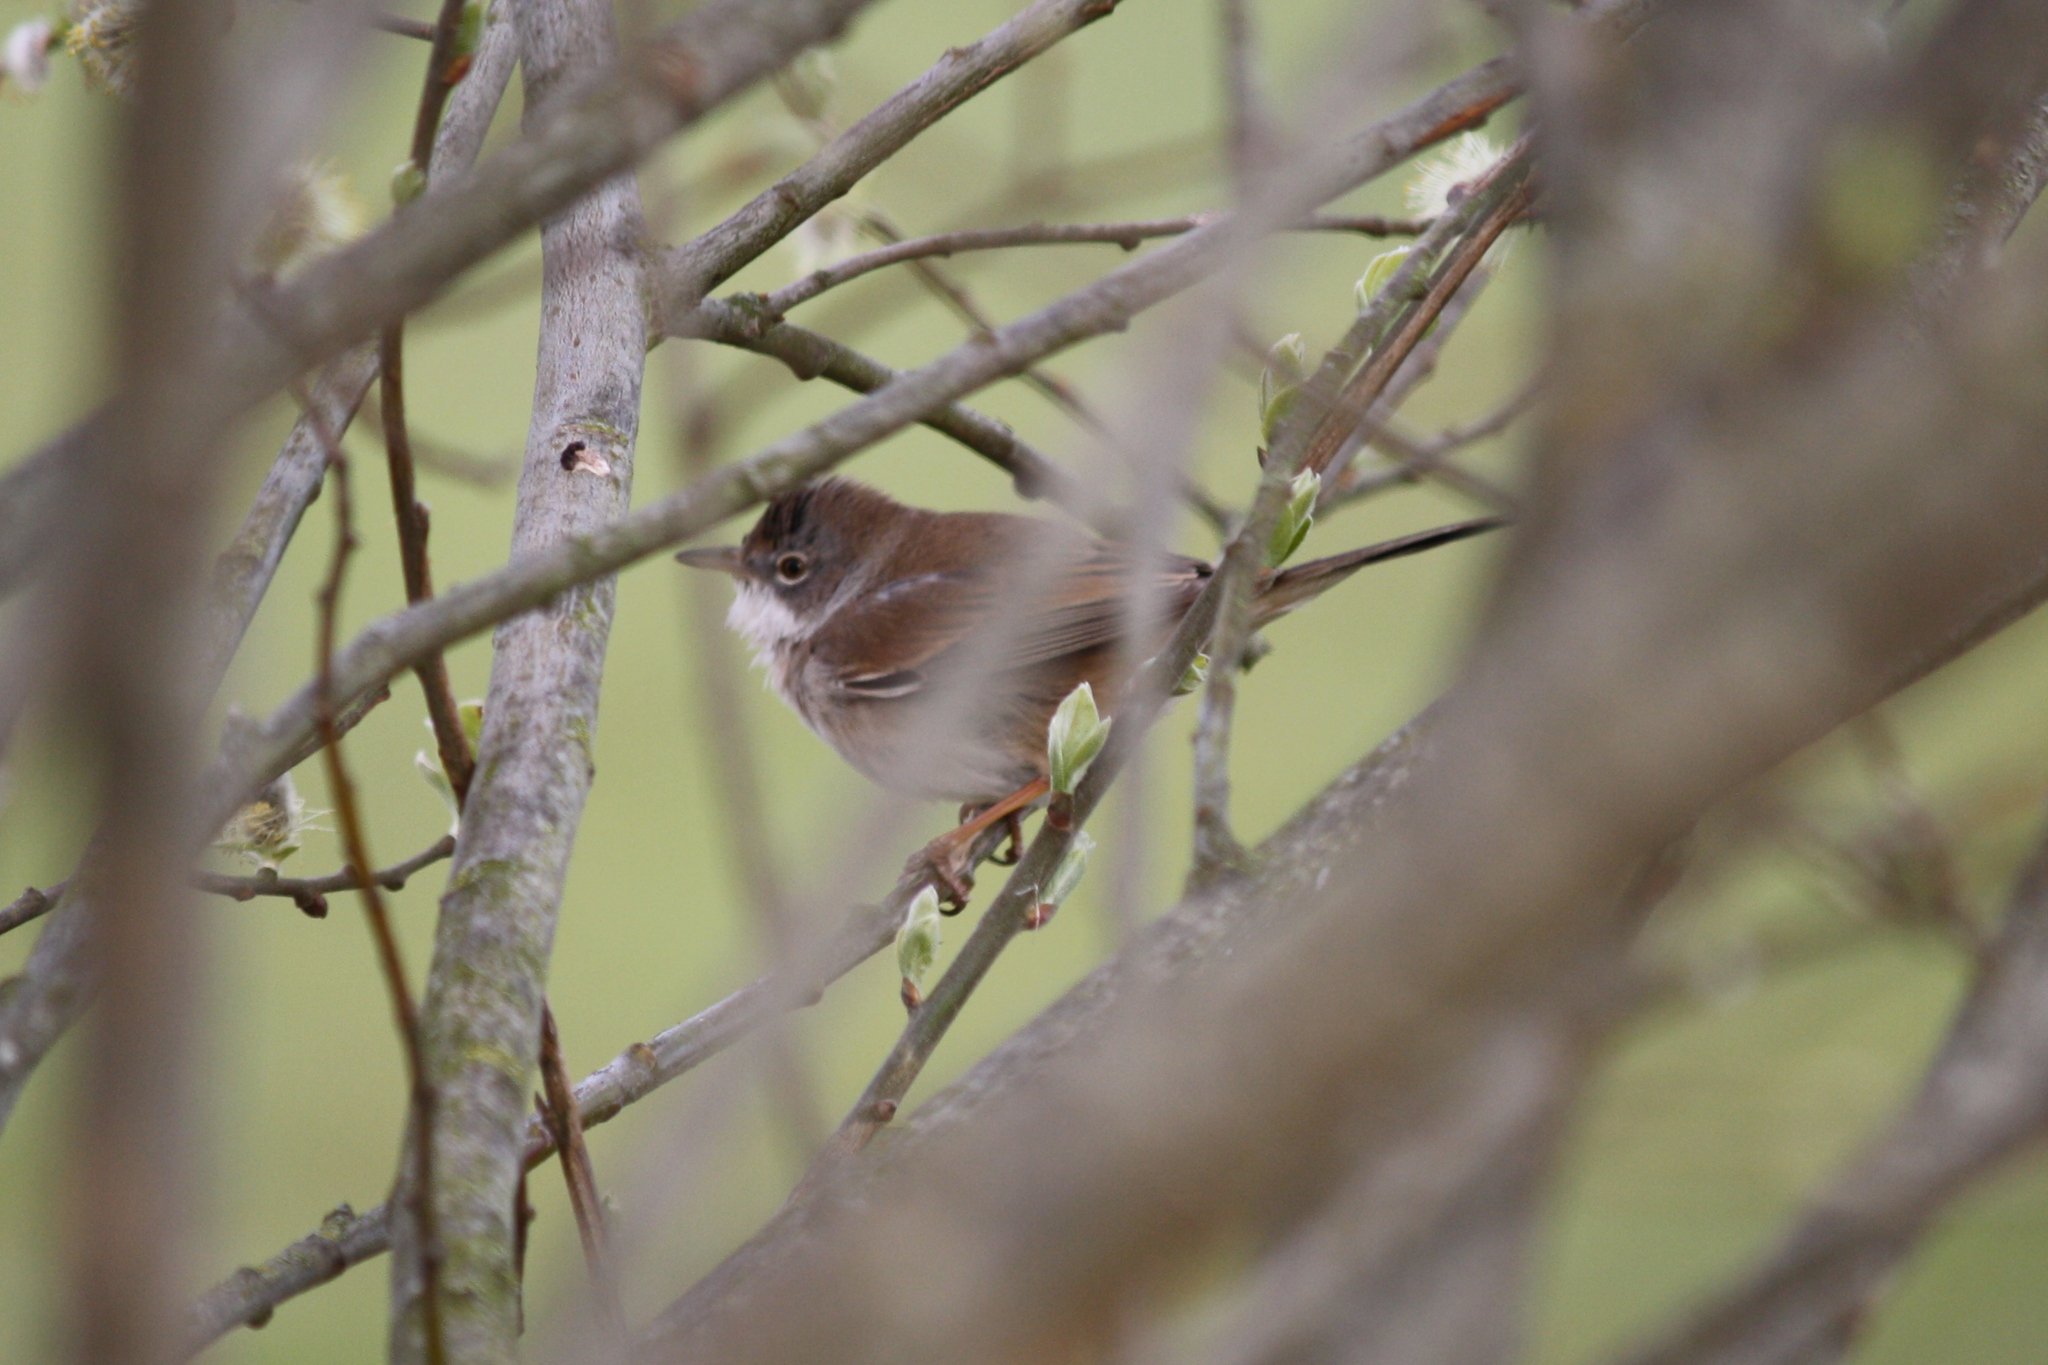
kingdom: Animalia
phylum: Chordata
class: Aves
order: Passeriformes
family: Sylviidae
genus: Sylvia
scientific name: Sylvia communis
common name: Common whitethroat
